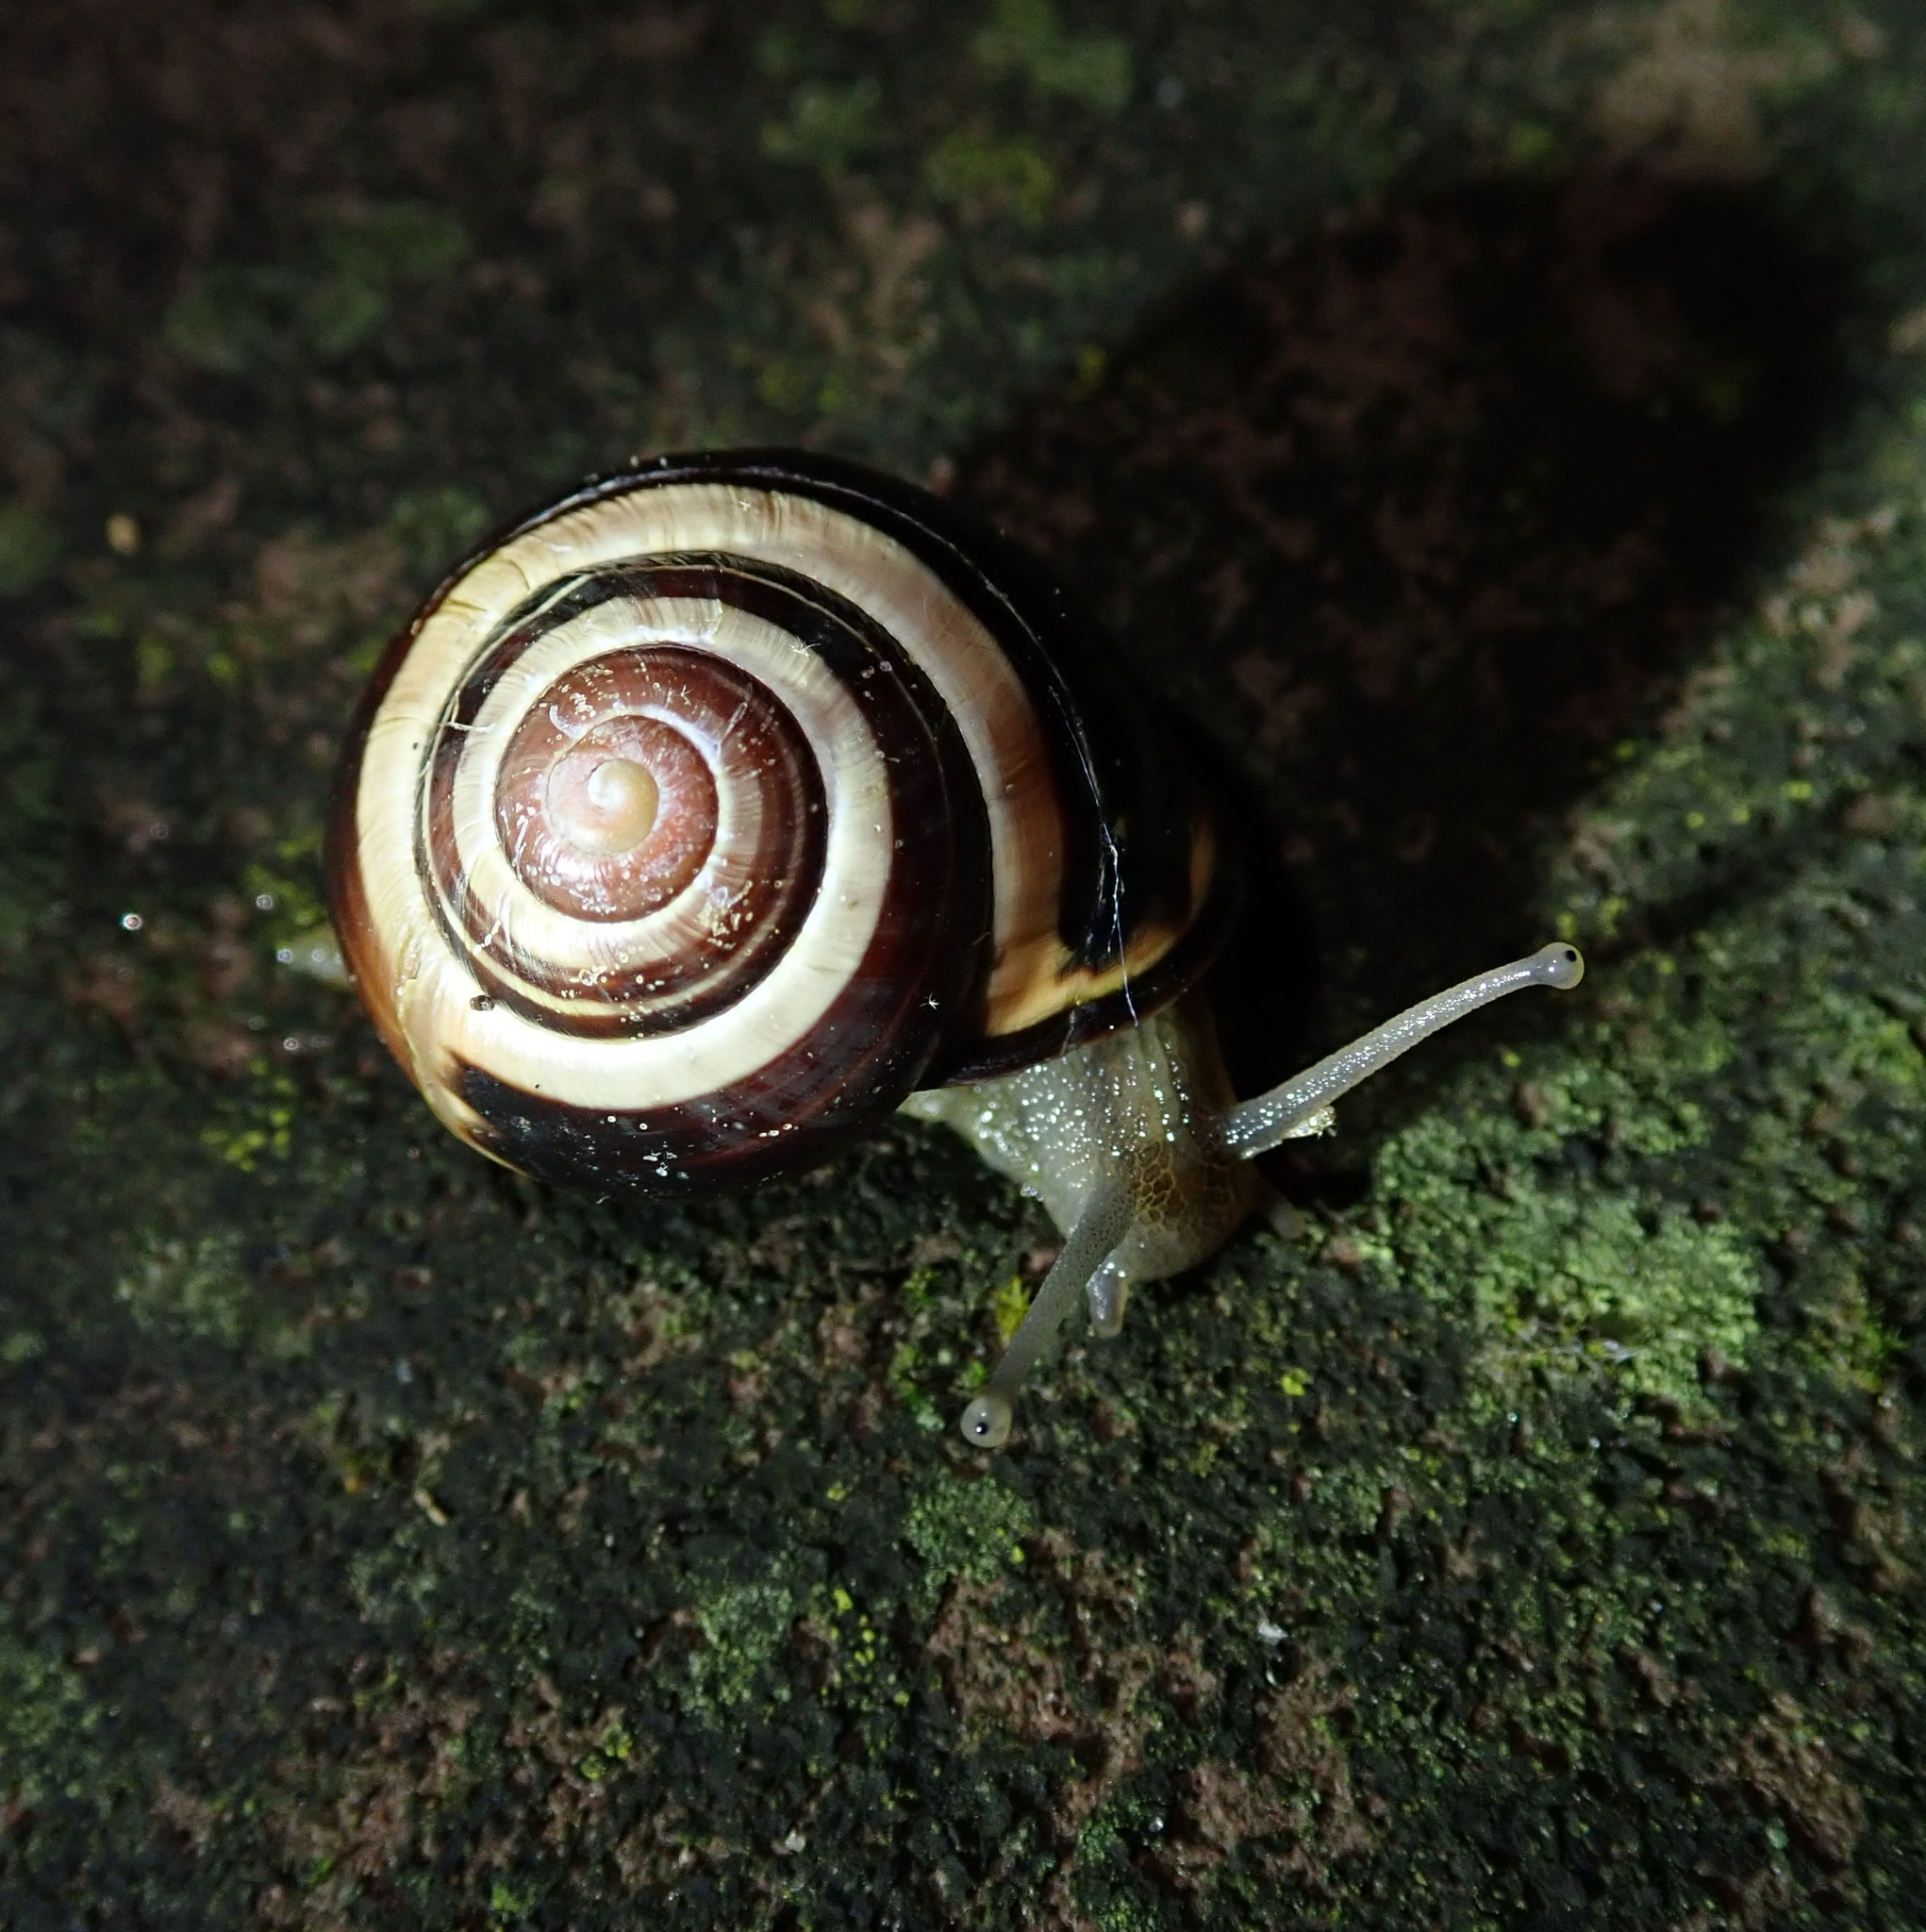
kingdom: Animalia
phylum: Mollusca
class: Gastropoda
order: Stylommatophora
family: Helicidae
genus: Cepaea
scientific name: Cepaea nemoralis
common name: Grovesnail
